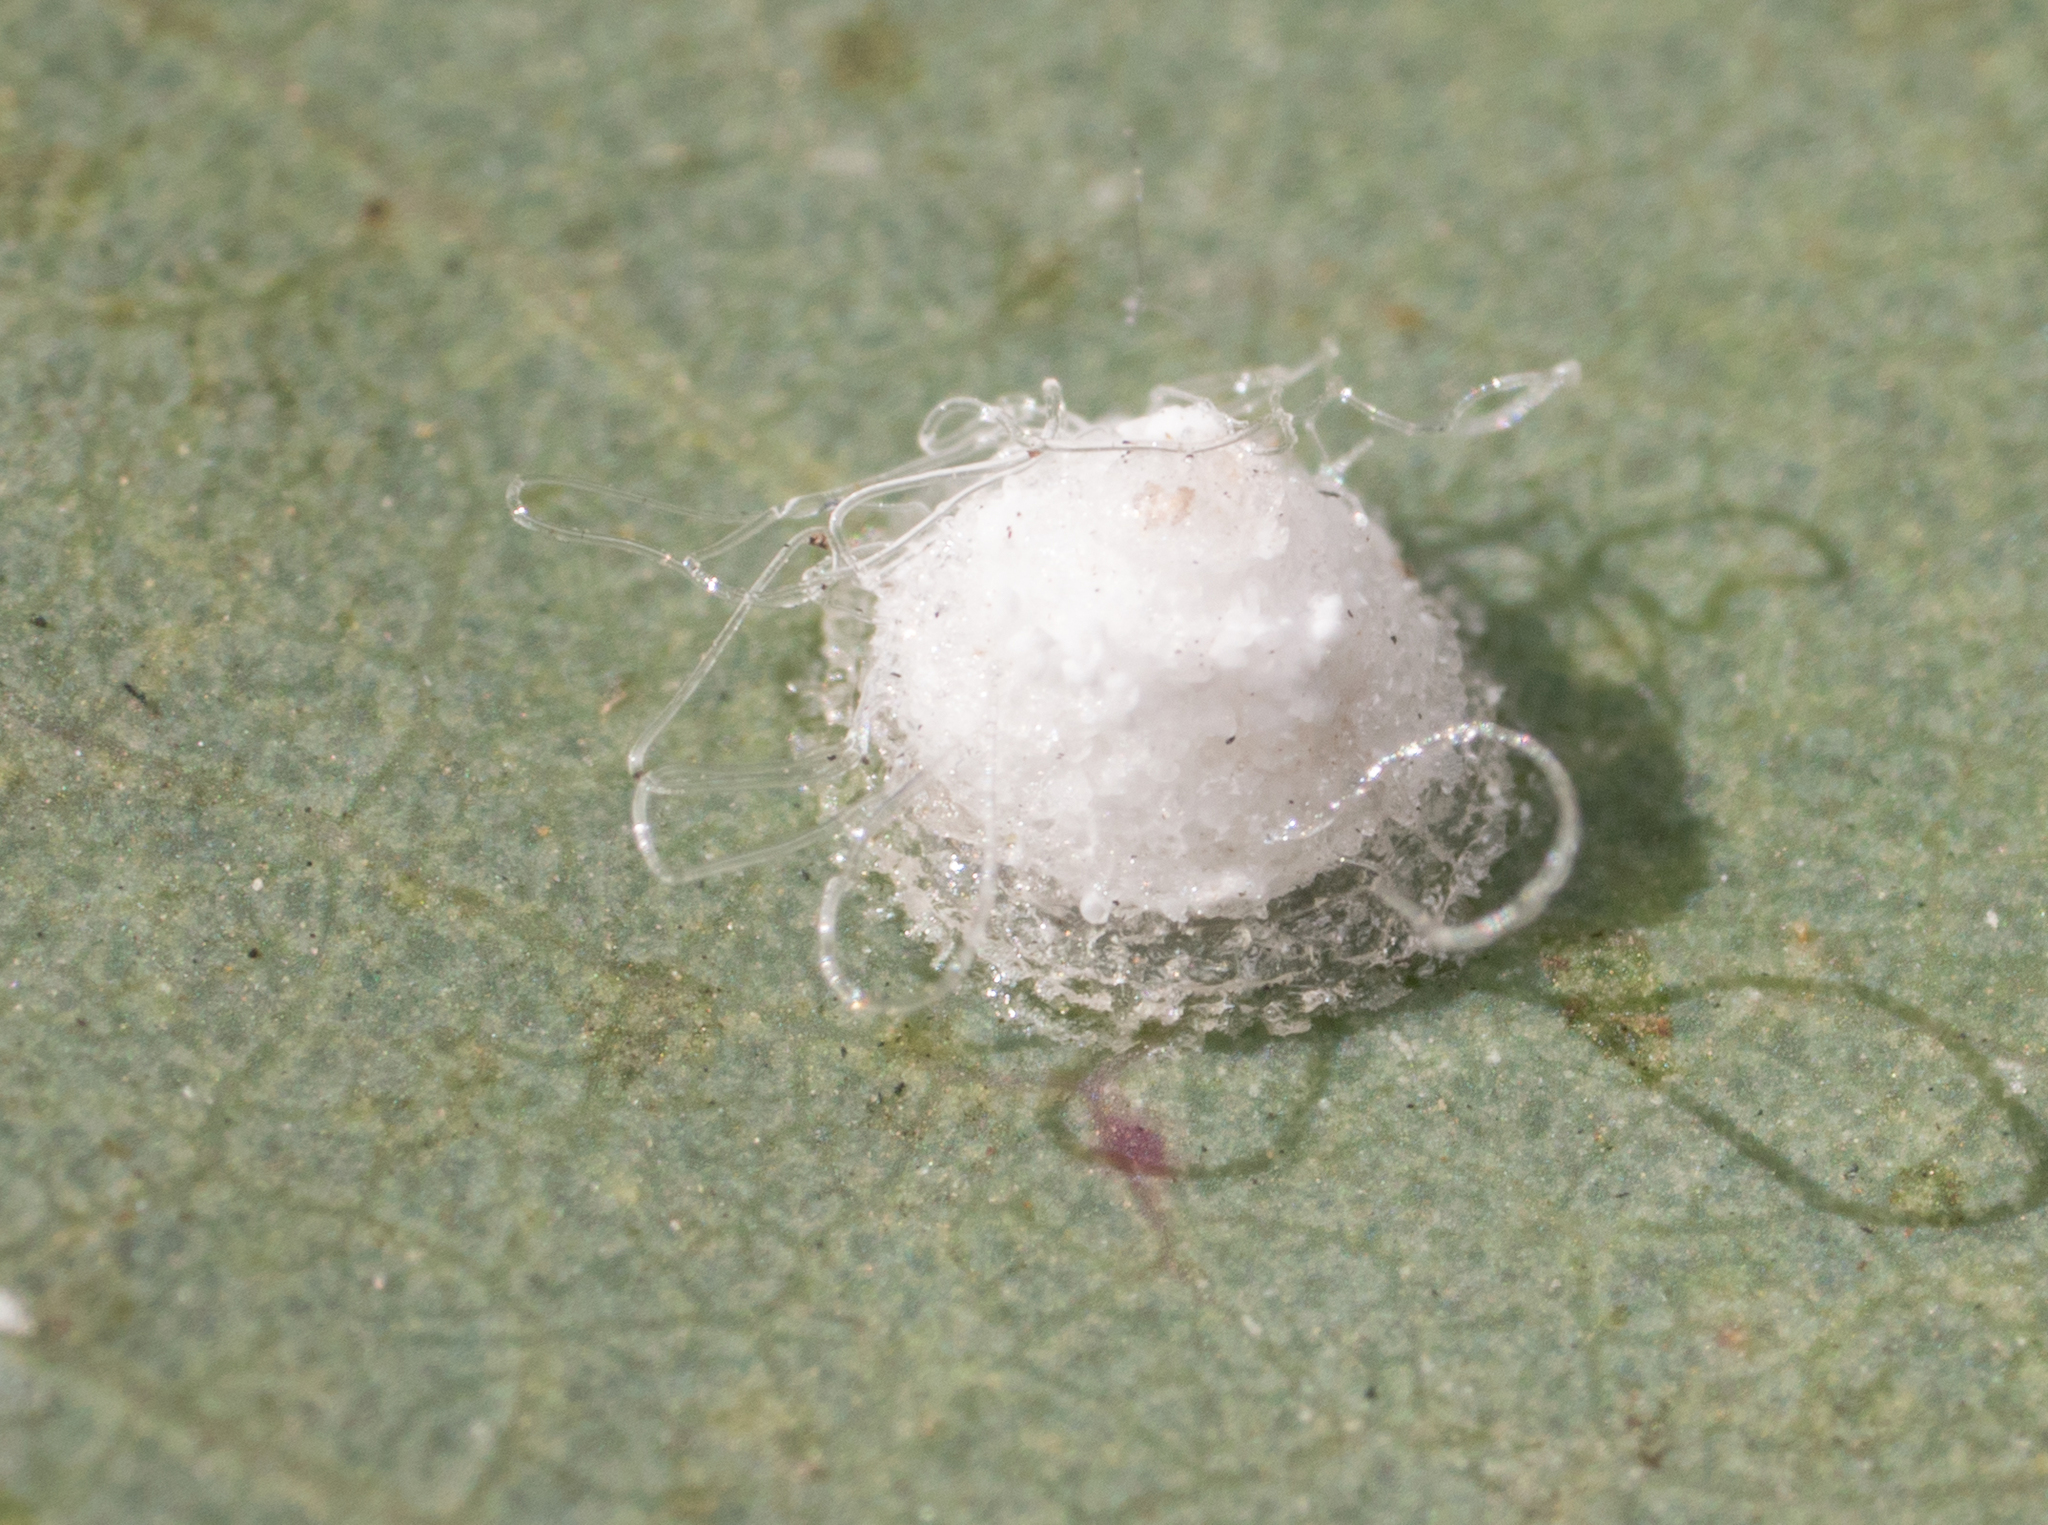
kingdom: Animalia
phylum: Arthropoda
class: Insecta
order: Hemiptera
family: Aphalaridae
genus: Glycaspis
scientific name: Glycaspis brimblecombei
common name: Red gum lerp psyllid
